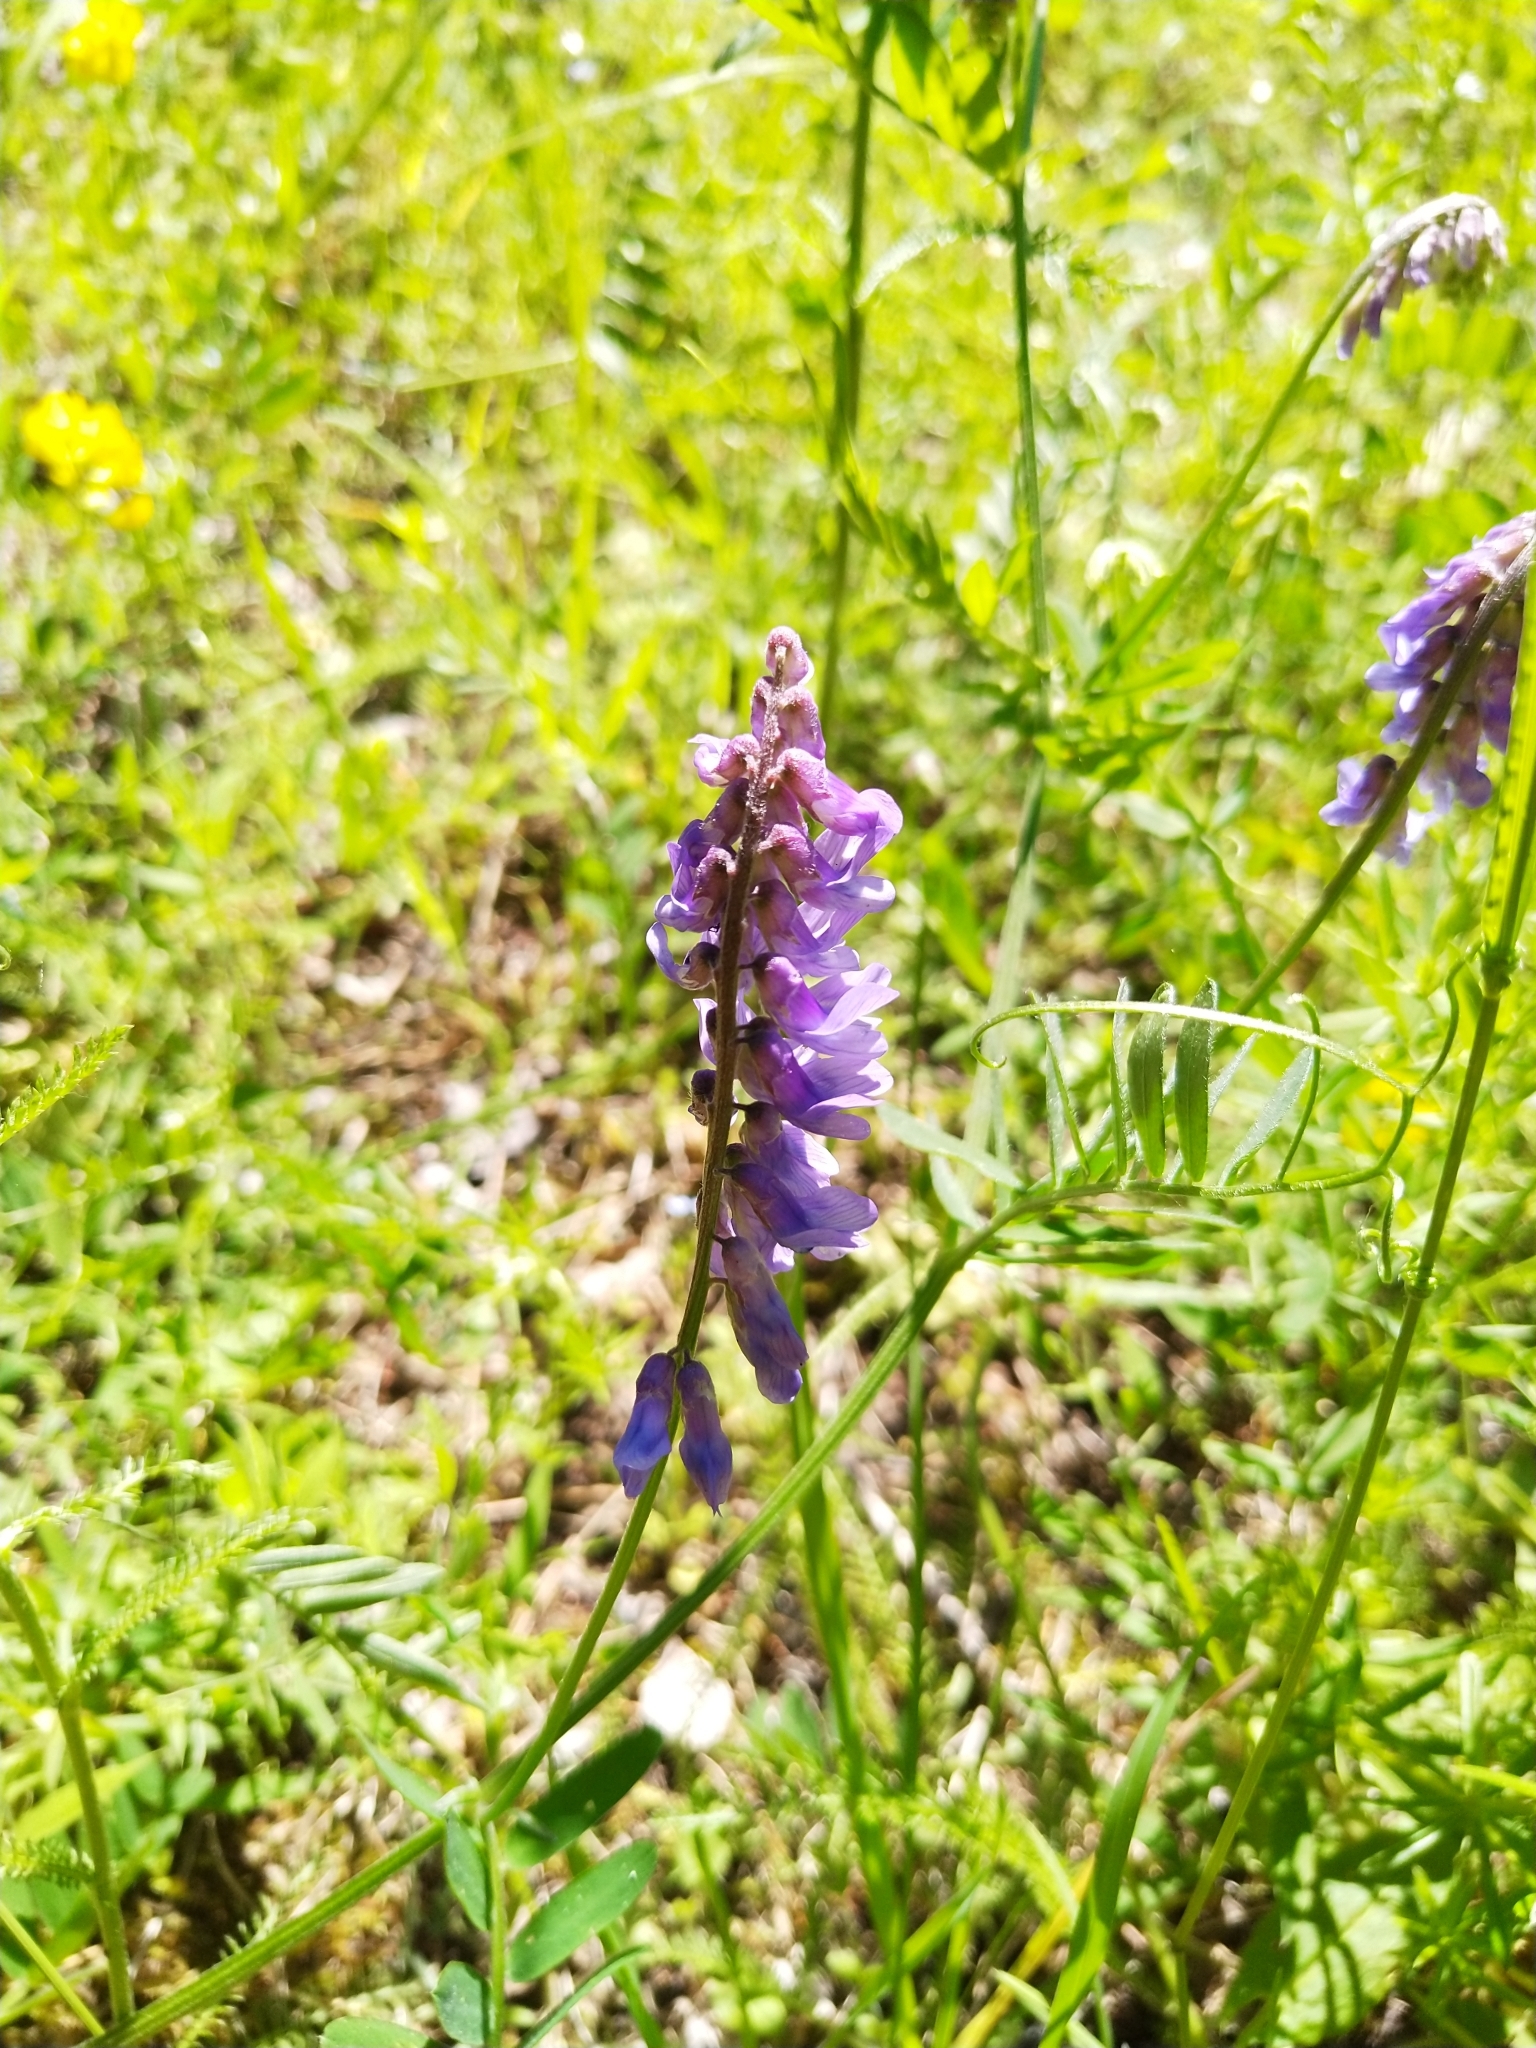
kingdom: Plantae
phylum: Tracheophyta
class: Magnoliopsida
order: Fabales
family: Fabaceae
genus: Vicia
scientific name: Vicia cracca
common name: Bird vetch
